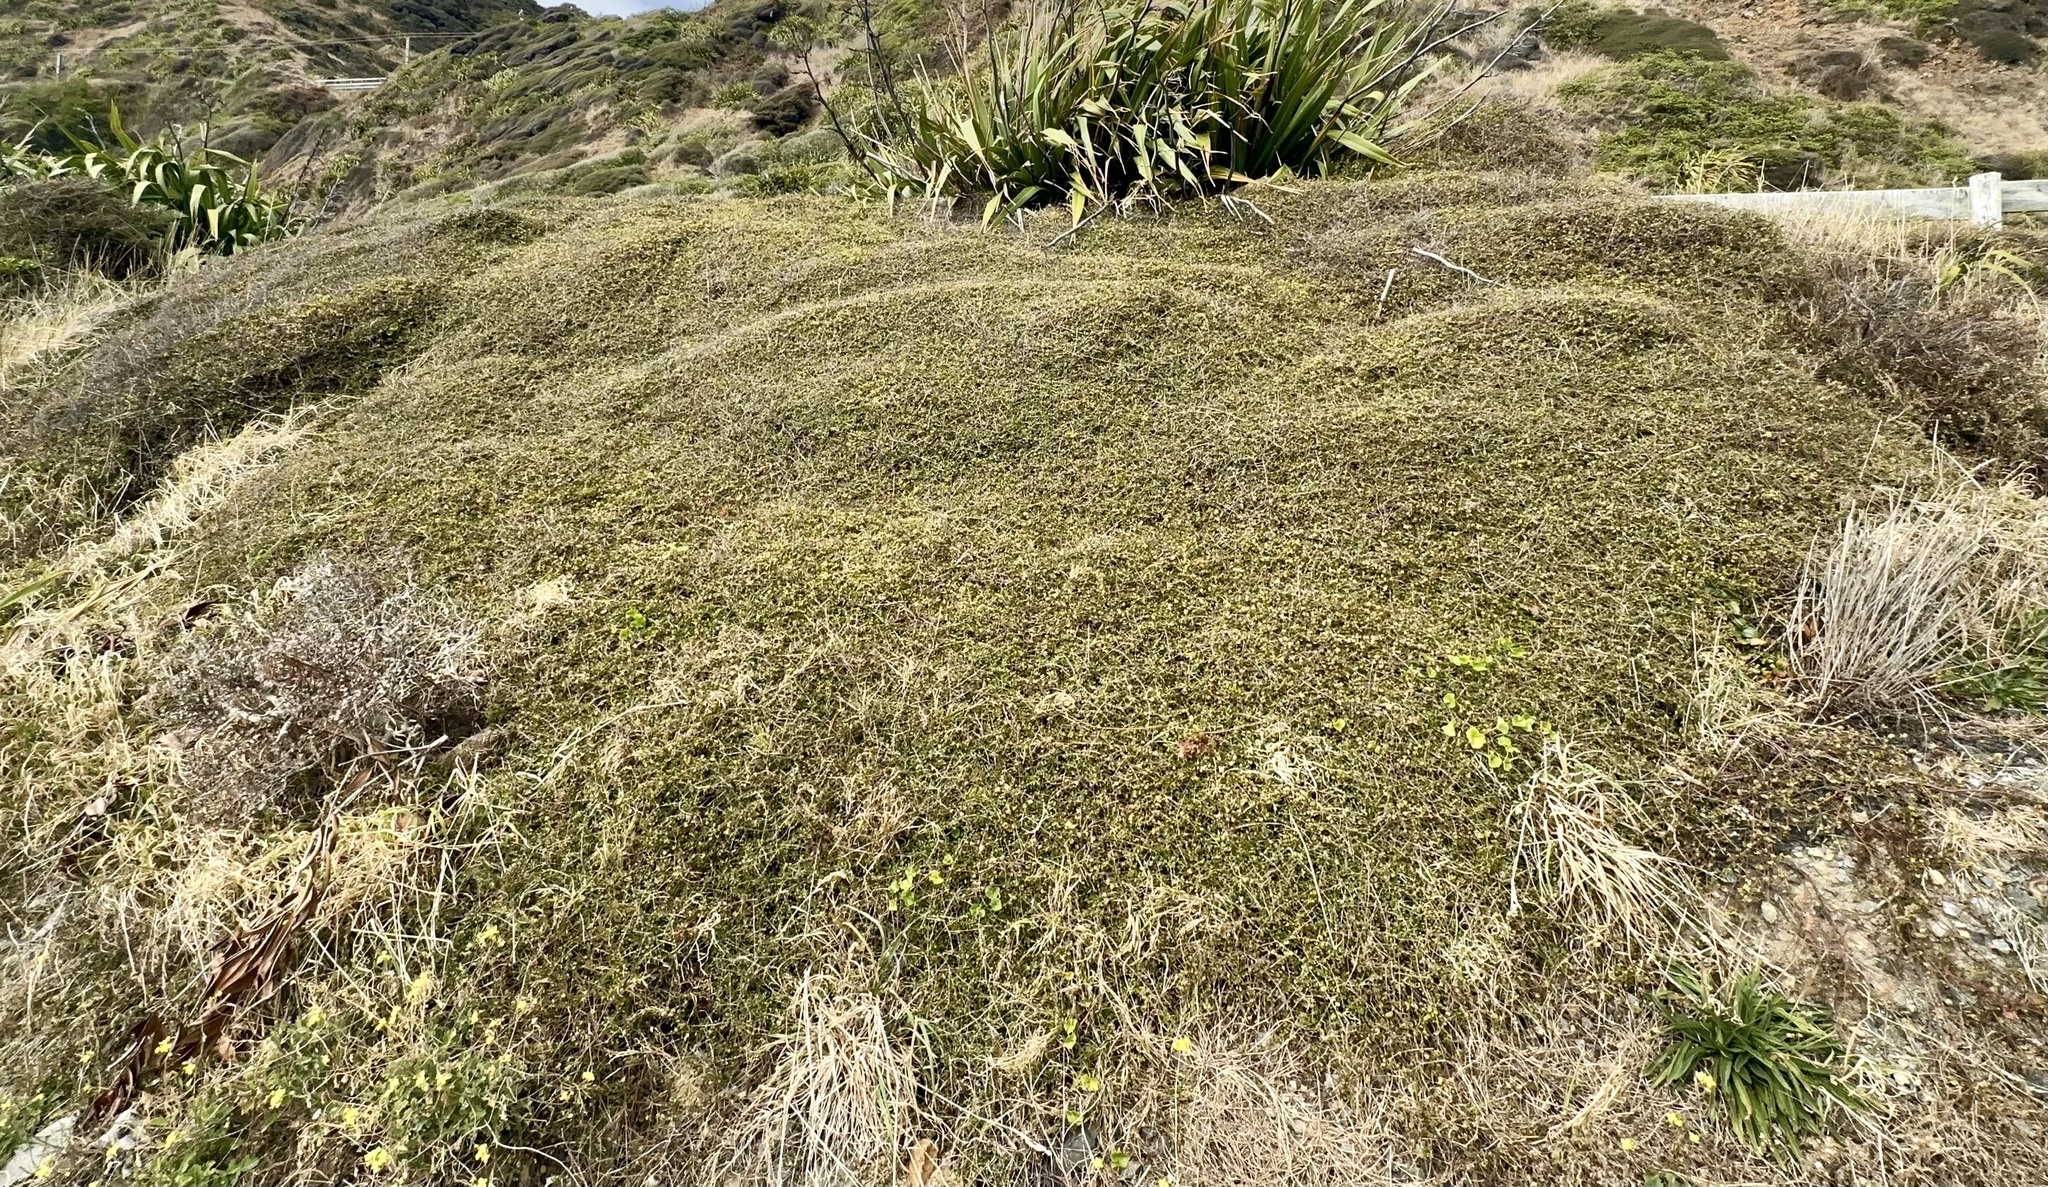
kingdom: Plantae
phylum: Tracheophyta
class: Magnoliopsida
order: Caryophyllales
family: Polygonaceae
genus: Muehlenbeckia
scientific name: Muehlenbeckia complexa
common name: Wireplant
